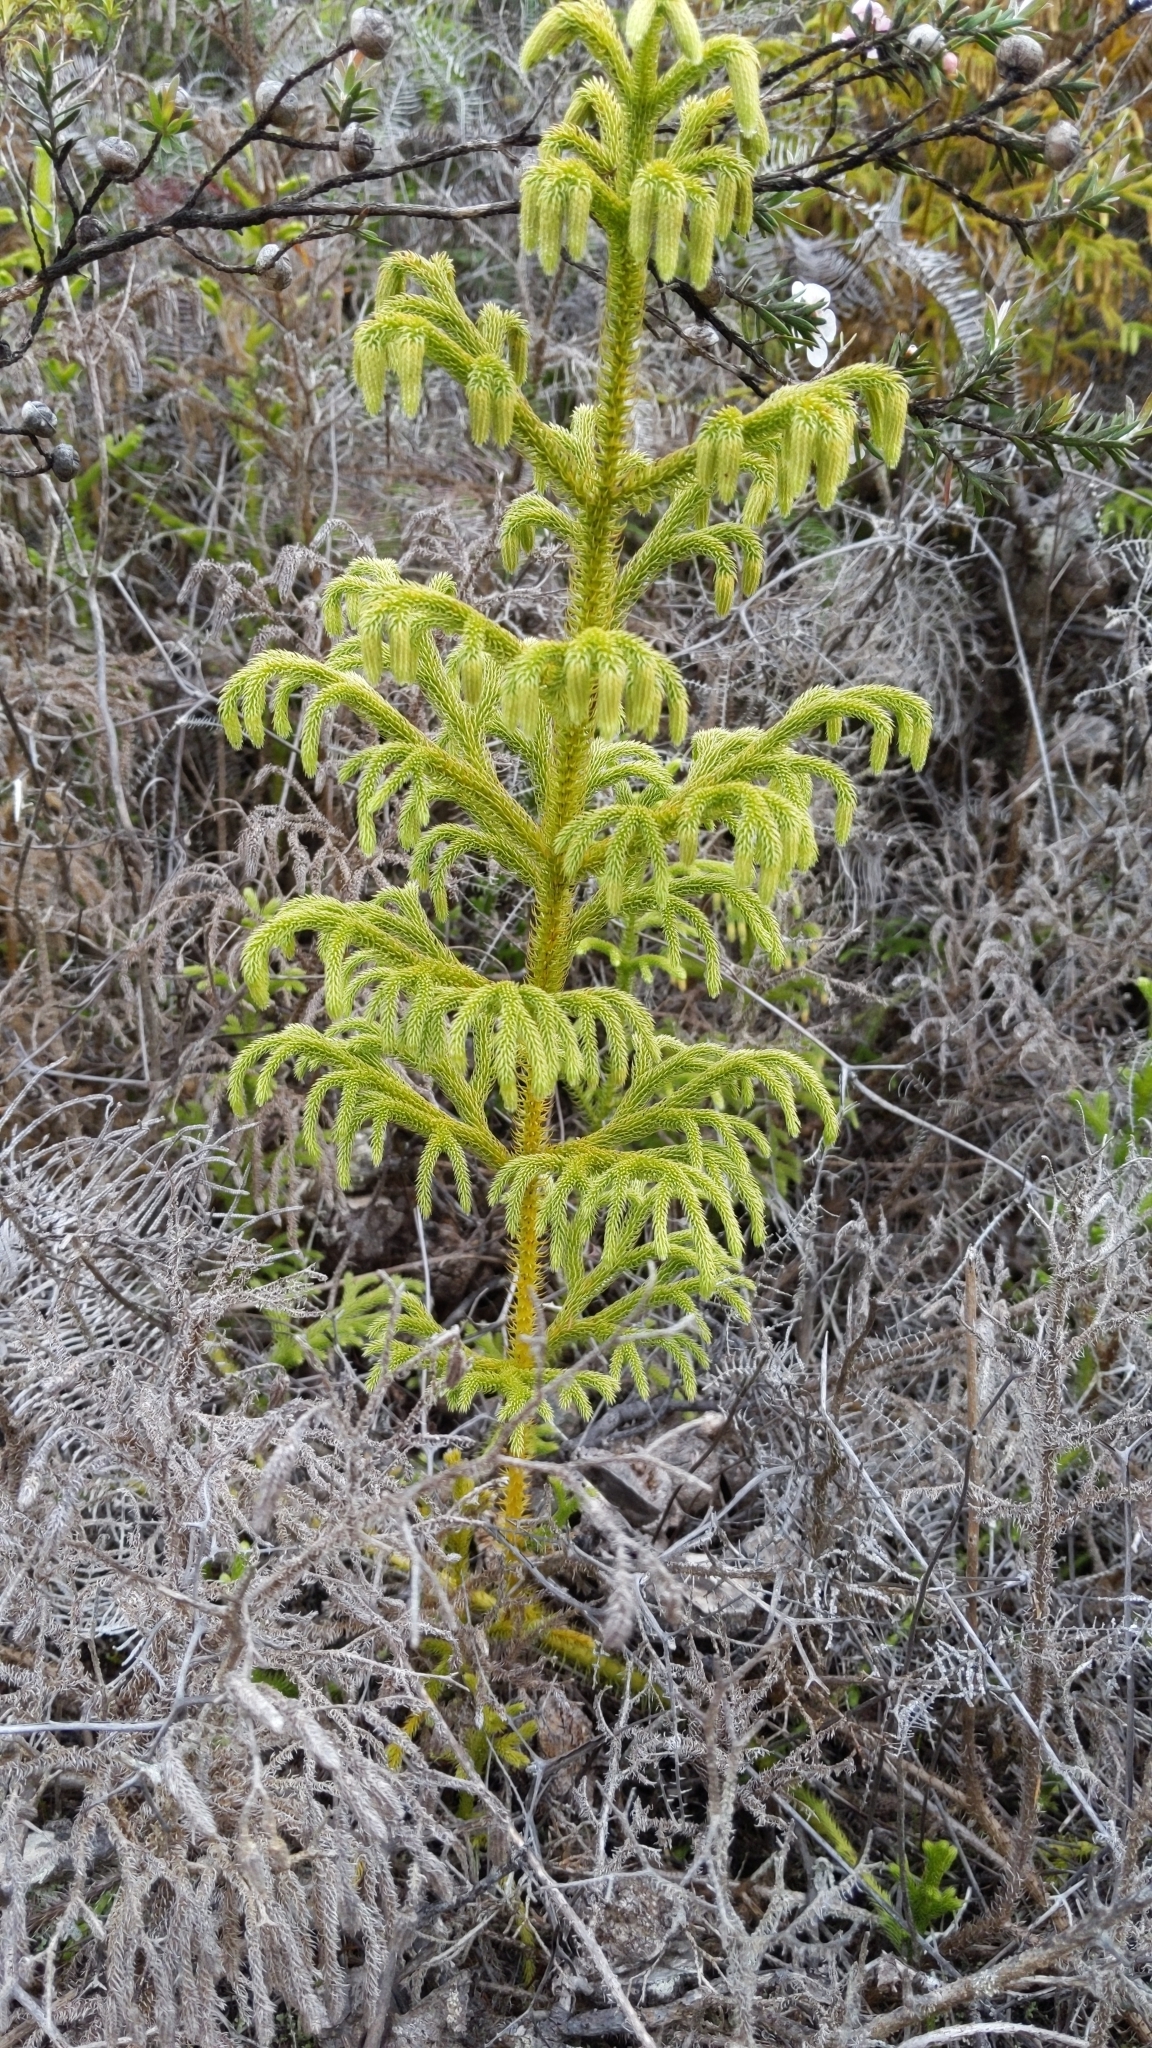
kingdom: Plantae
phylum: Tracheophyta
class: Lycopodiopsida
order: Lycopodiales
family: Lycopodiaceae
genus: Palhinhaea
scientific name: Palhinhaea cernua
